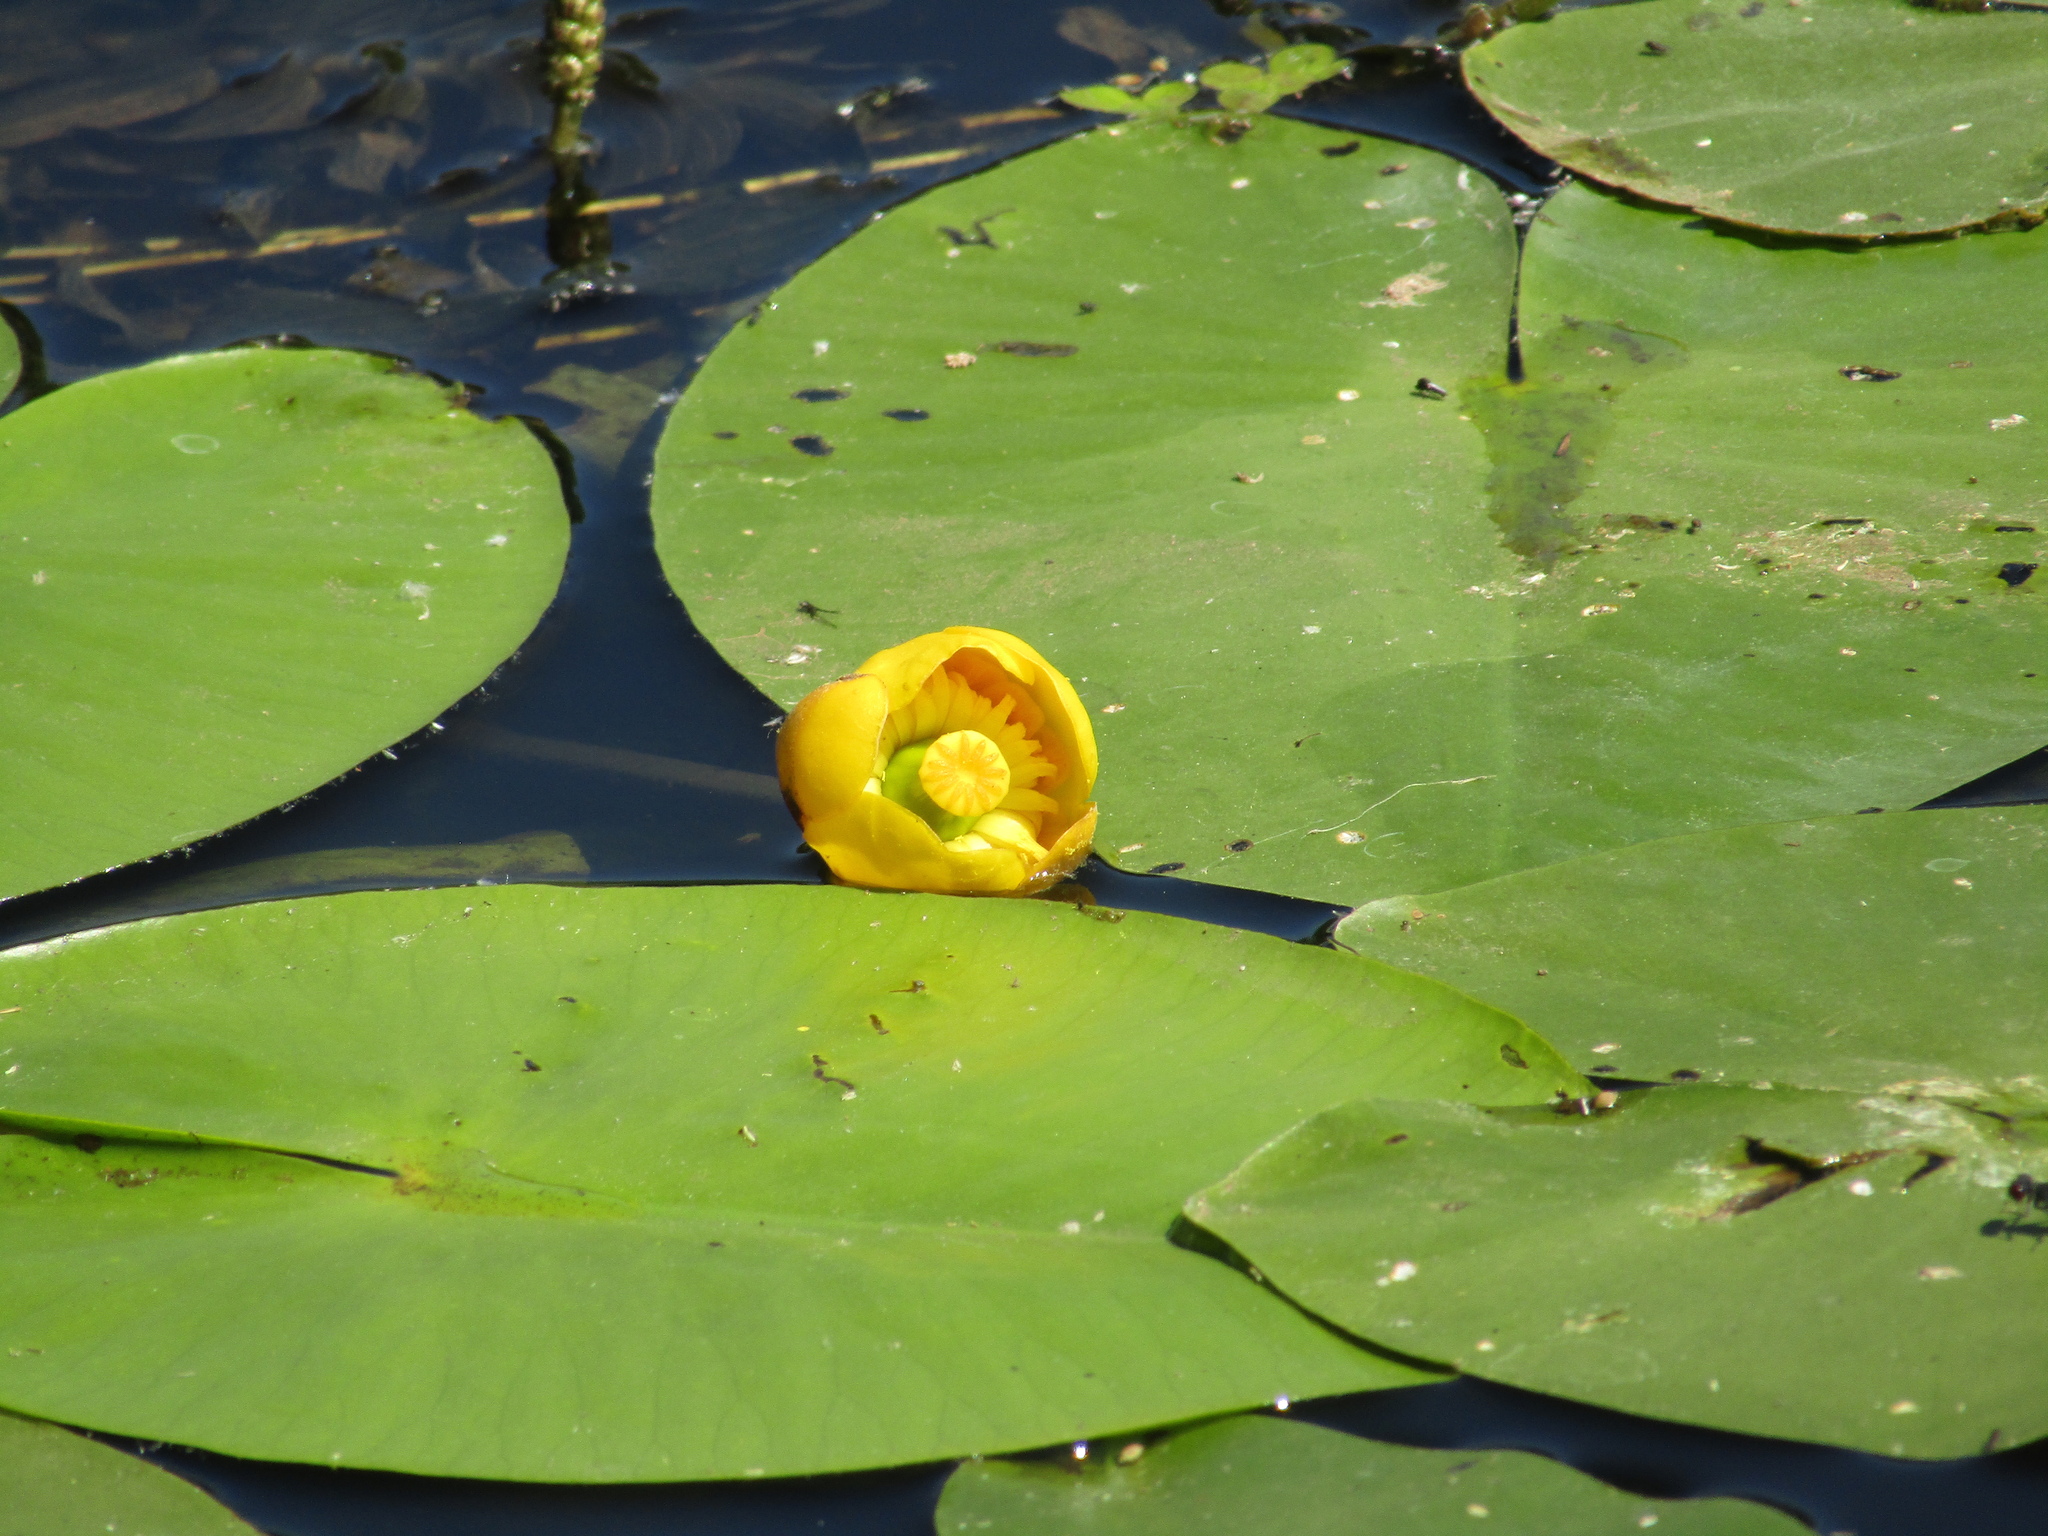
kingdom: Plantae
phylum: Tracheophyta
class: Magnoliopsida
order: Nymphaeales
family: Nymphaeaceae
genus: Nuphar
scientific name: Nuphar lutea
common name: Yellow water-lily
